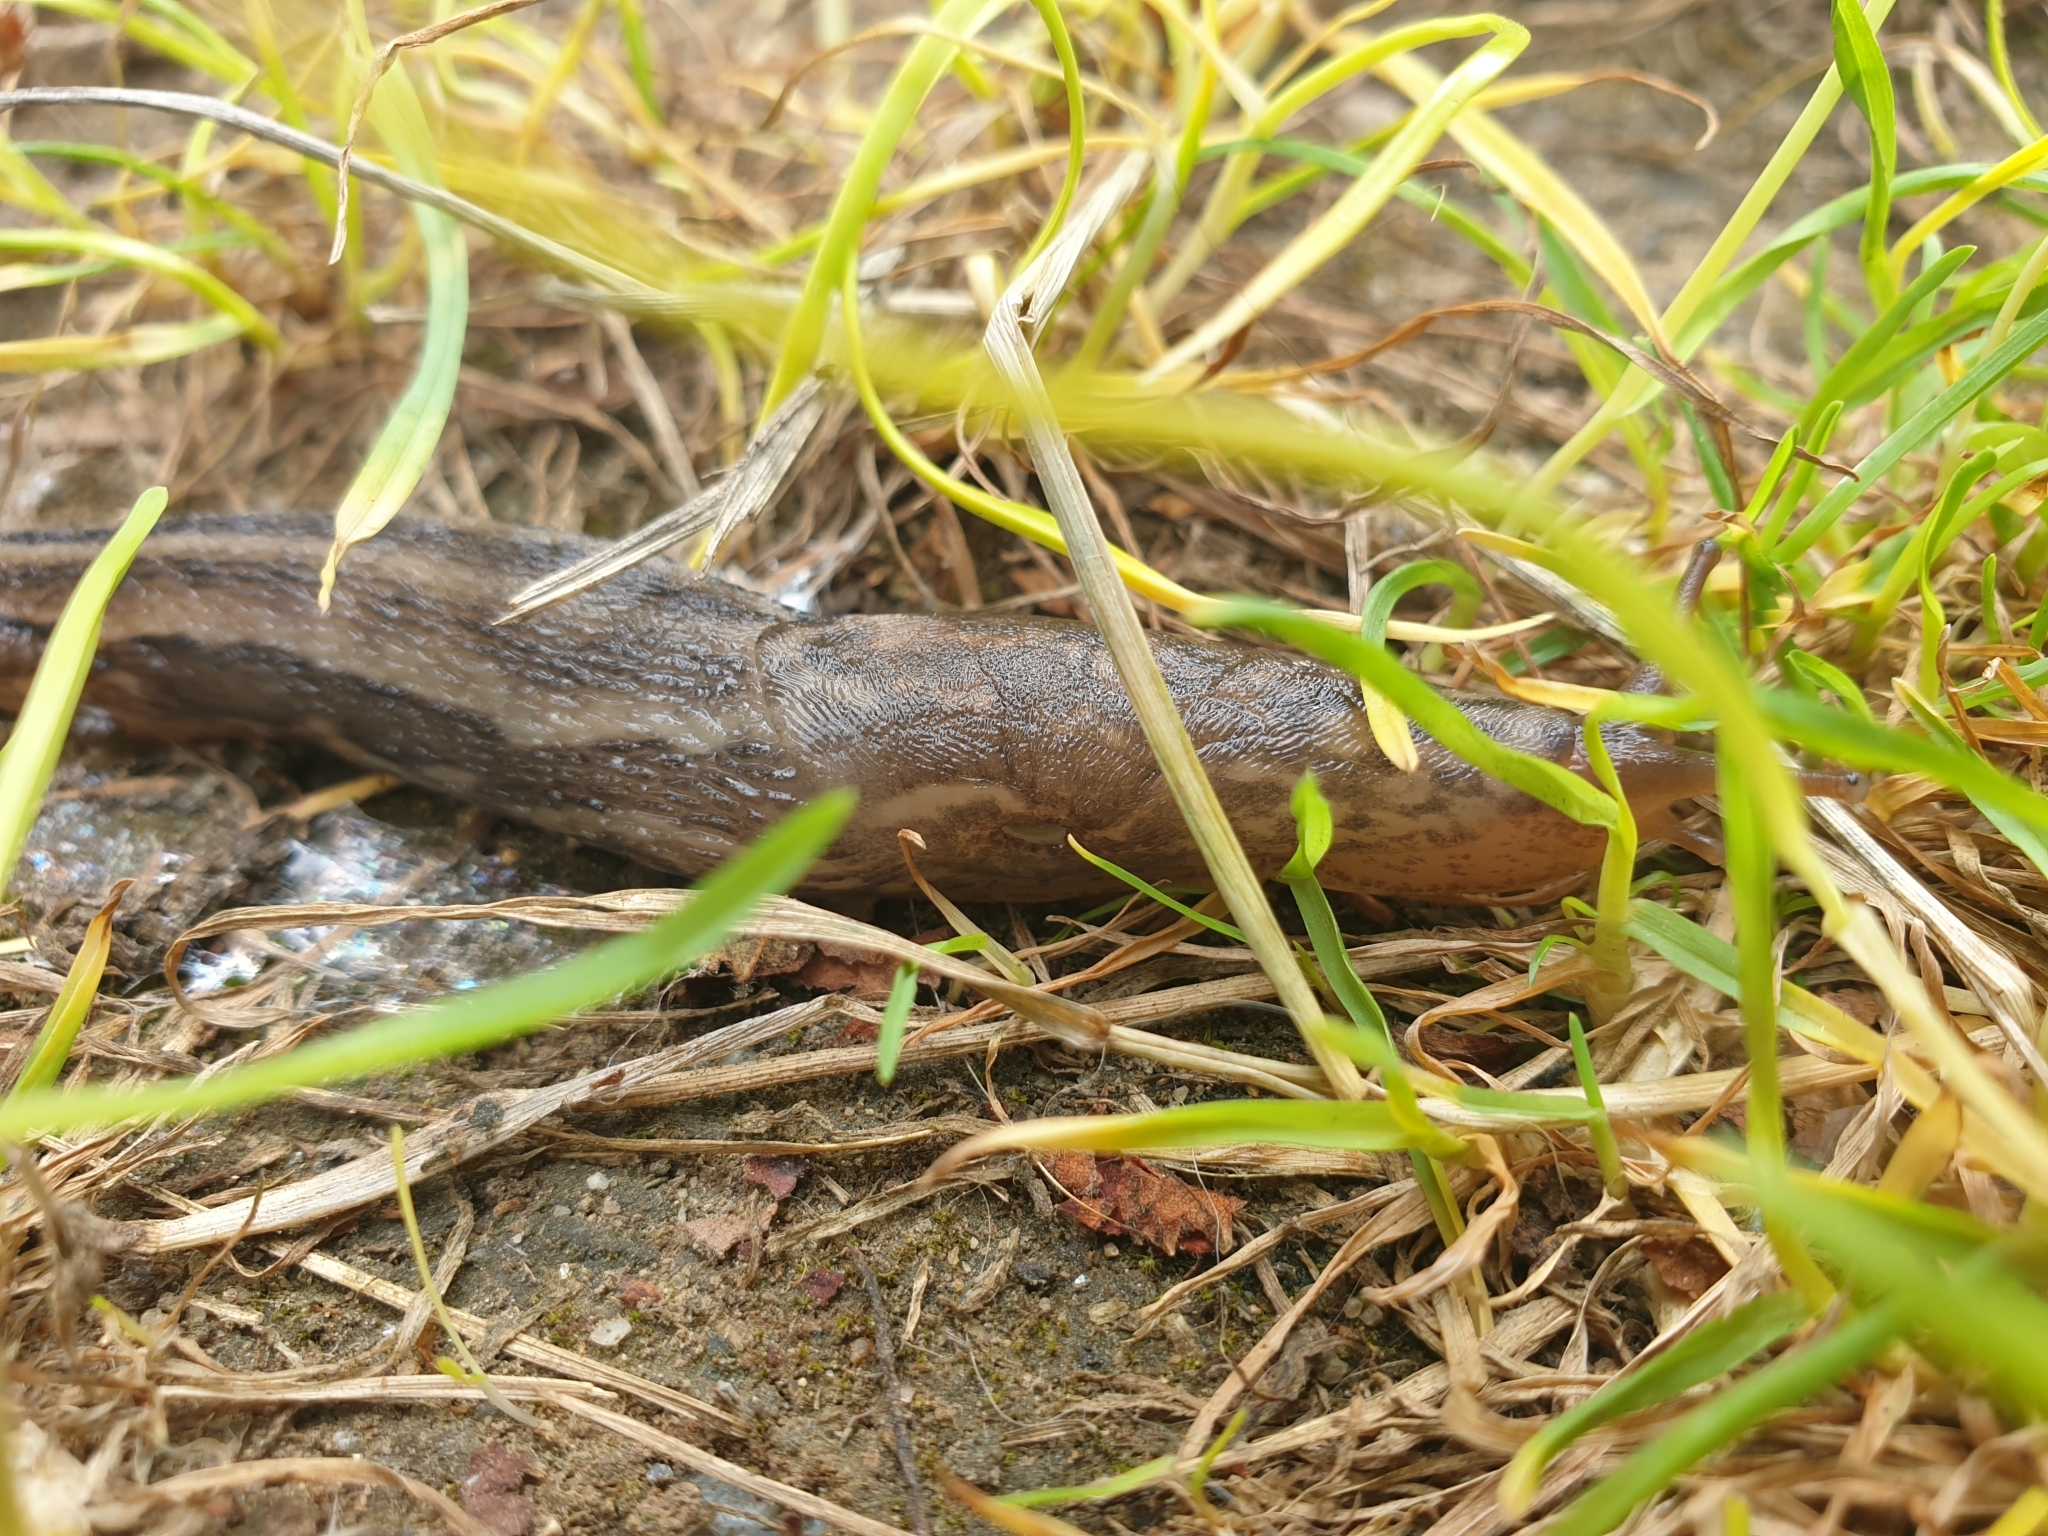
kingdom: Animalia
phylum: Mollusca
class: Gastropoda
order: Stylommatophora
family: Limacidae
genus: Limax
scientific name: Limax maximus
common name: Great grey slug
